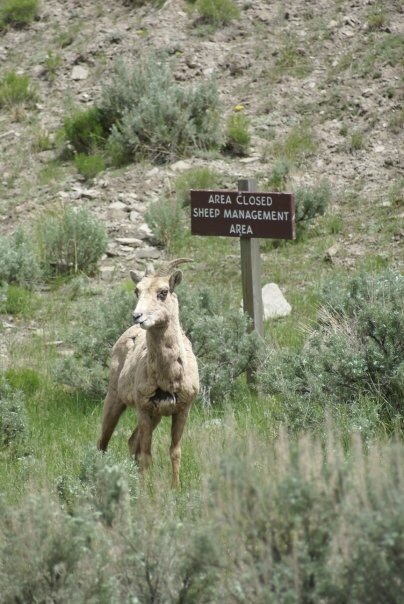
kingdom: Animalia
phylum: Chordata
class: Mammalia
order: Artiodactyla
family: Bovidae
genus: Ovis
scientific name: Ovis canadensis
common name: Bighorn sheep
